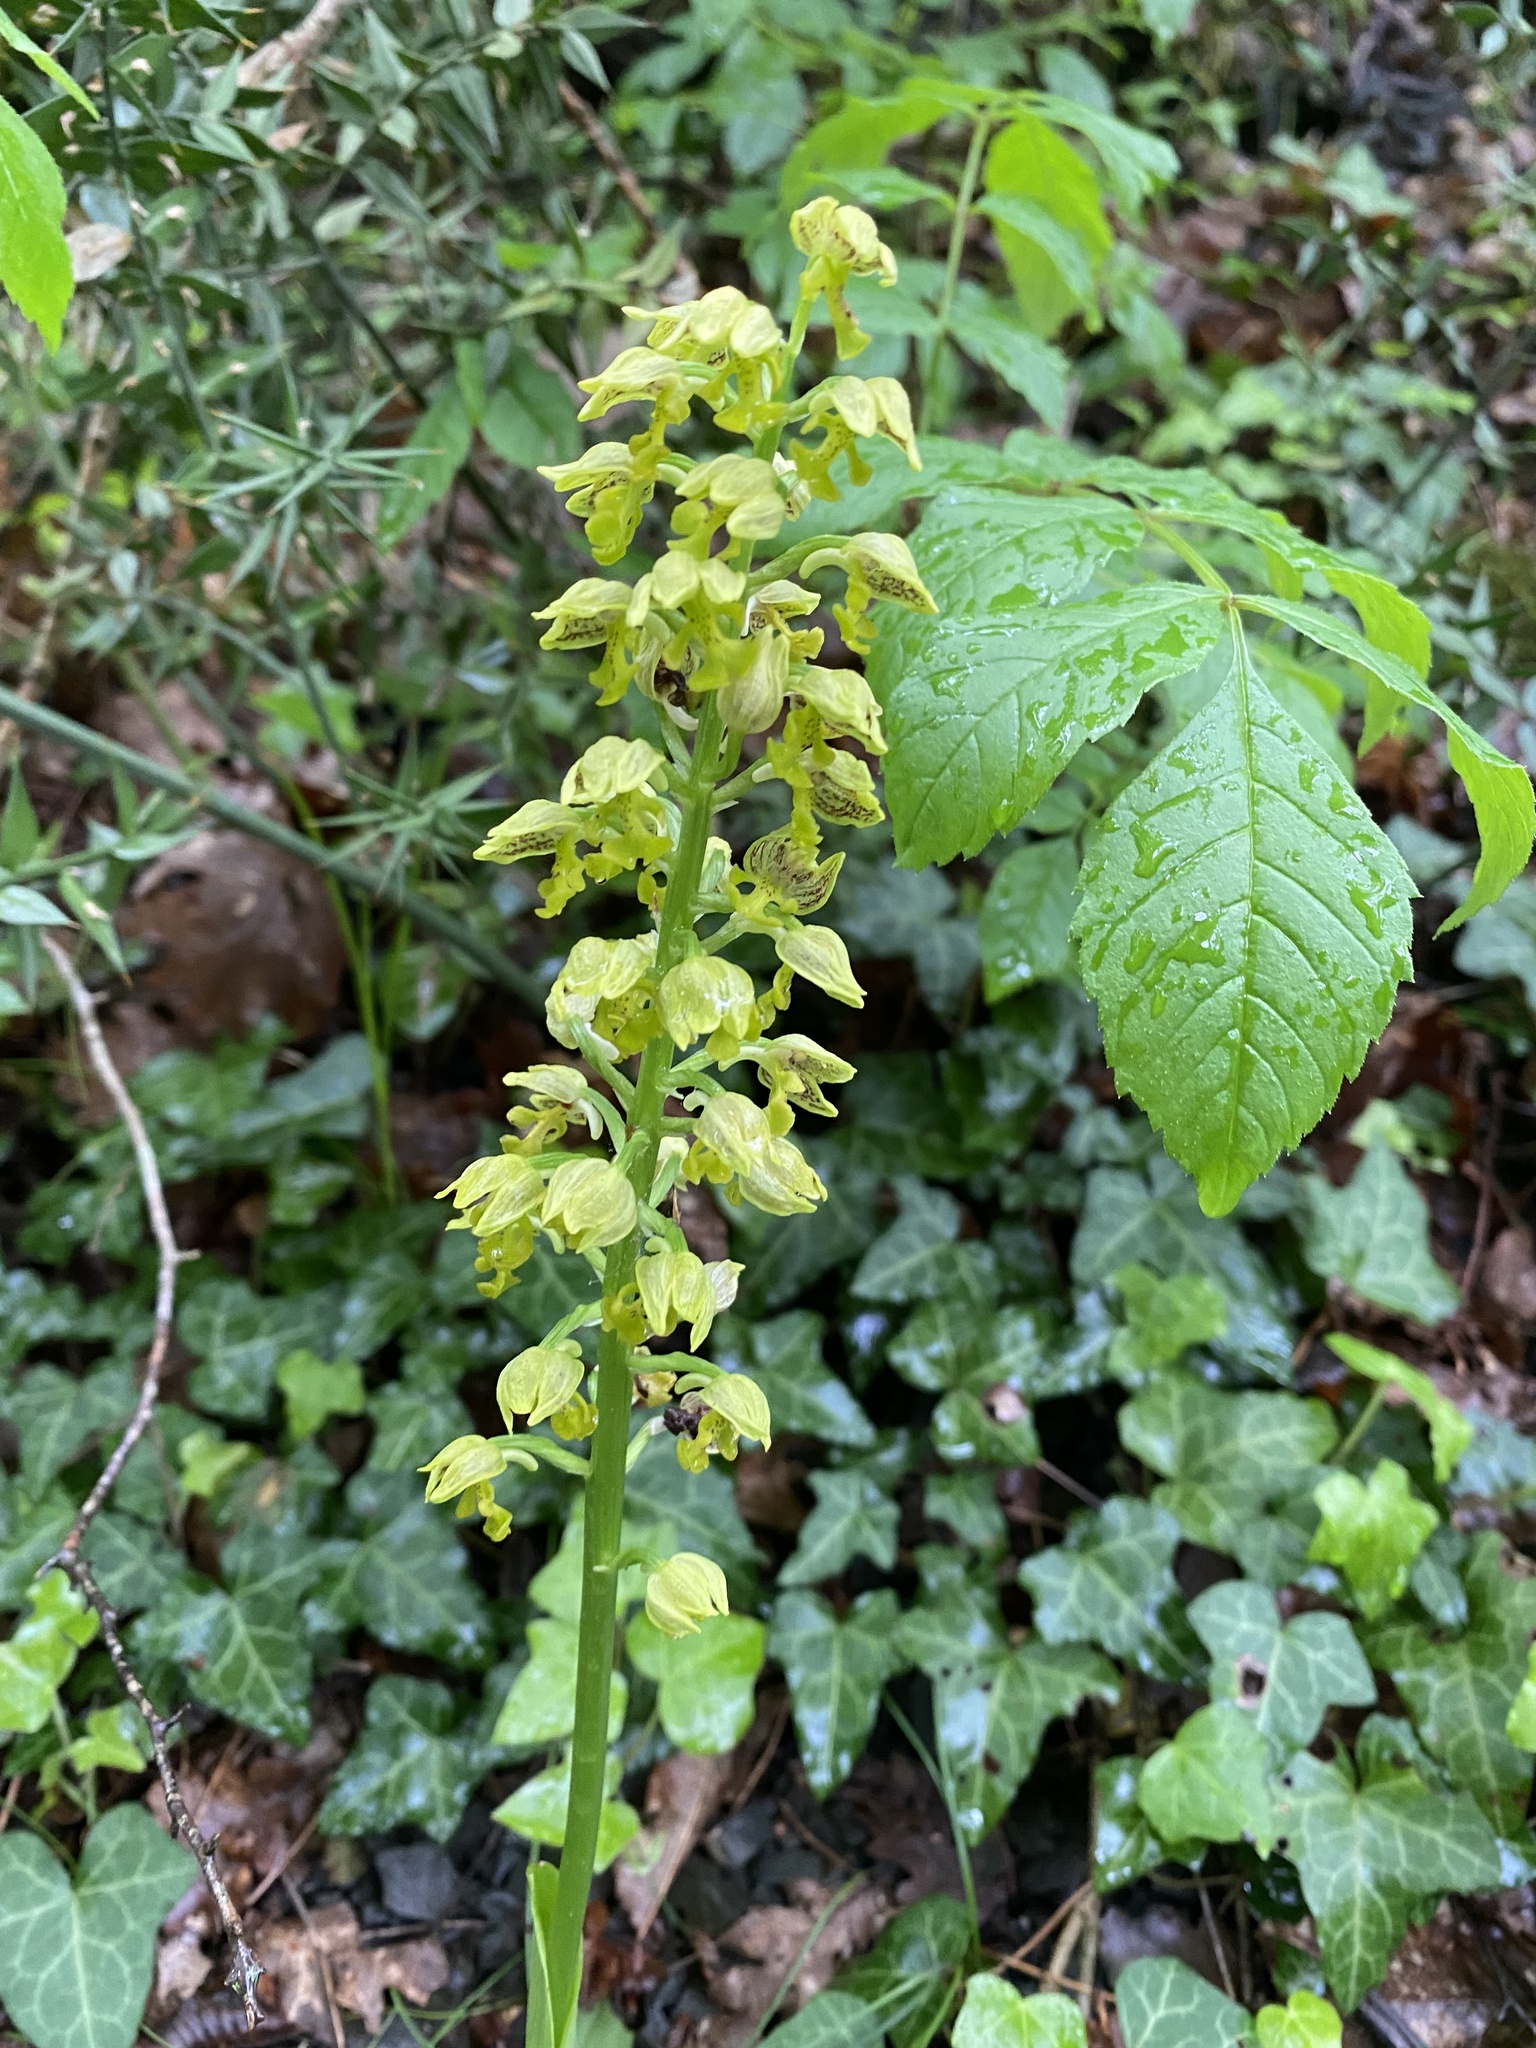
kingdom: Plantae
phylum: Tracheophyta
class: Liliopsida
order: Asparagales
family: Orchidaceae
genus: Orchis
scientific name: Orchis punctulata
